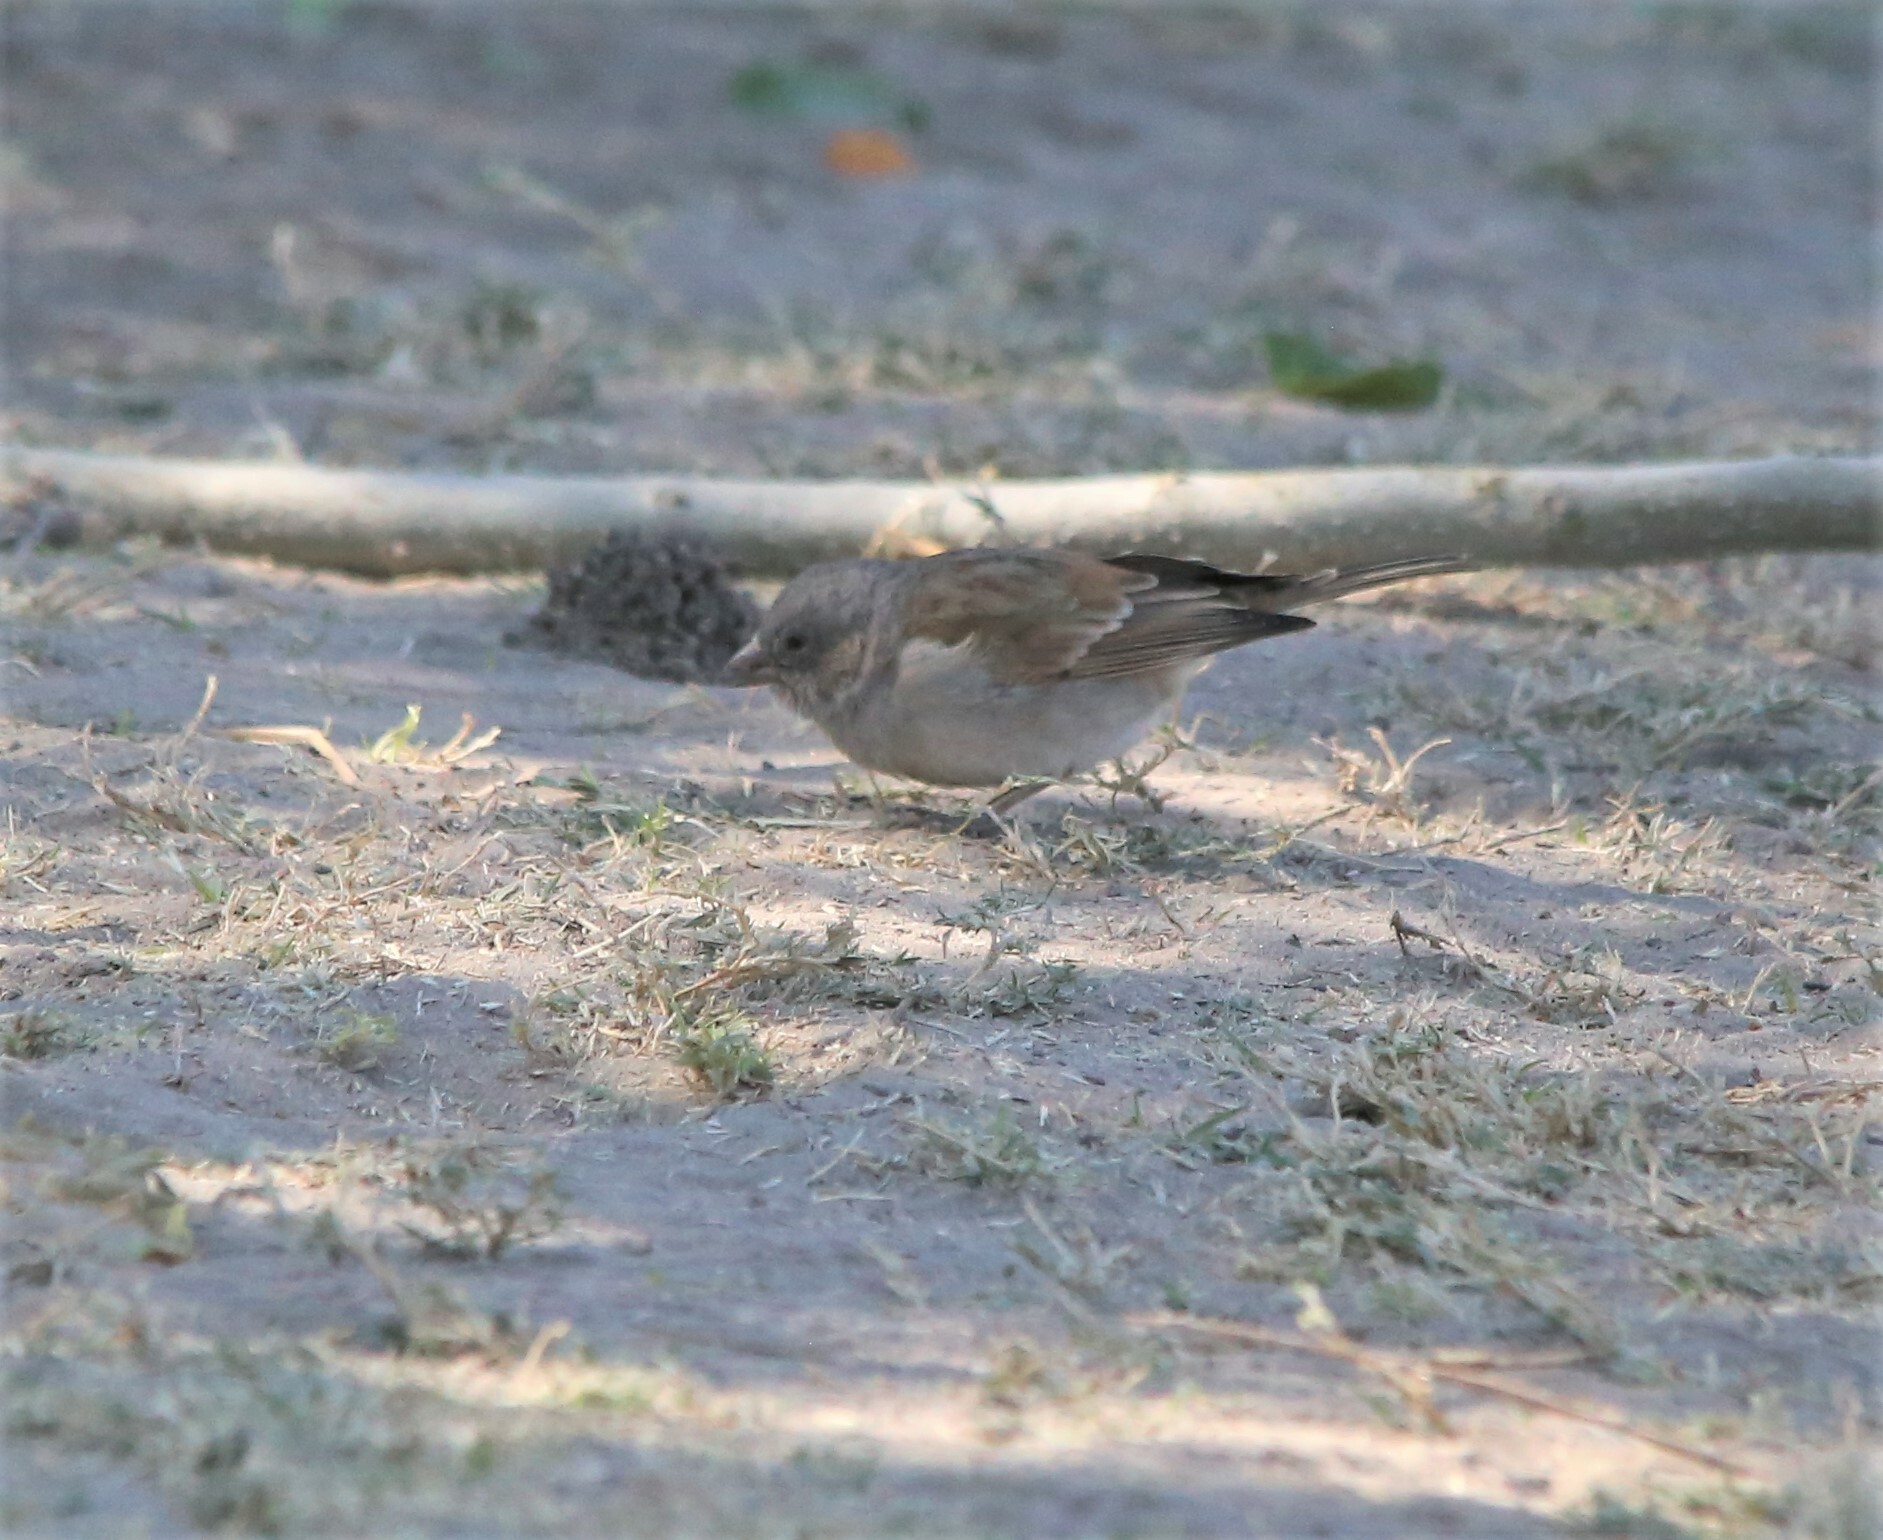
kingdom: Animalia
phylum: Chordata
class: Aves
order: Passeriformes
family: Passeridae
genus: Passer
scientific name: Passer diffusus
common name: Southern grey-headed sparrow
